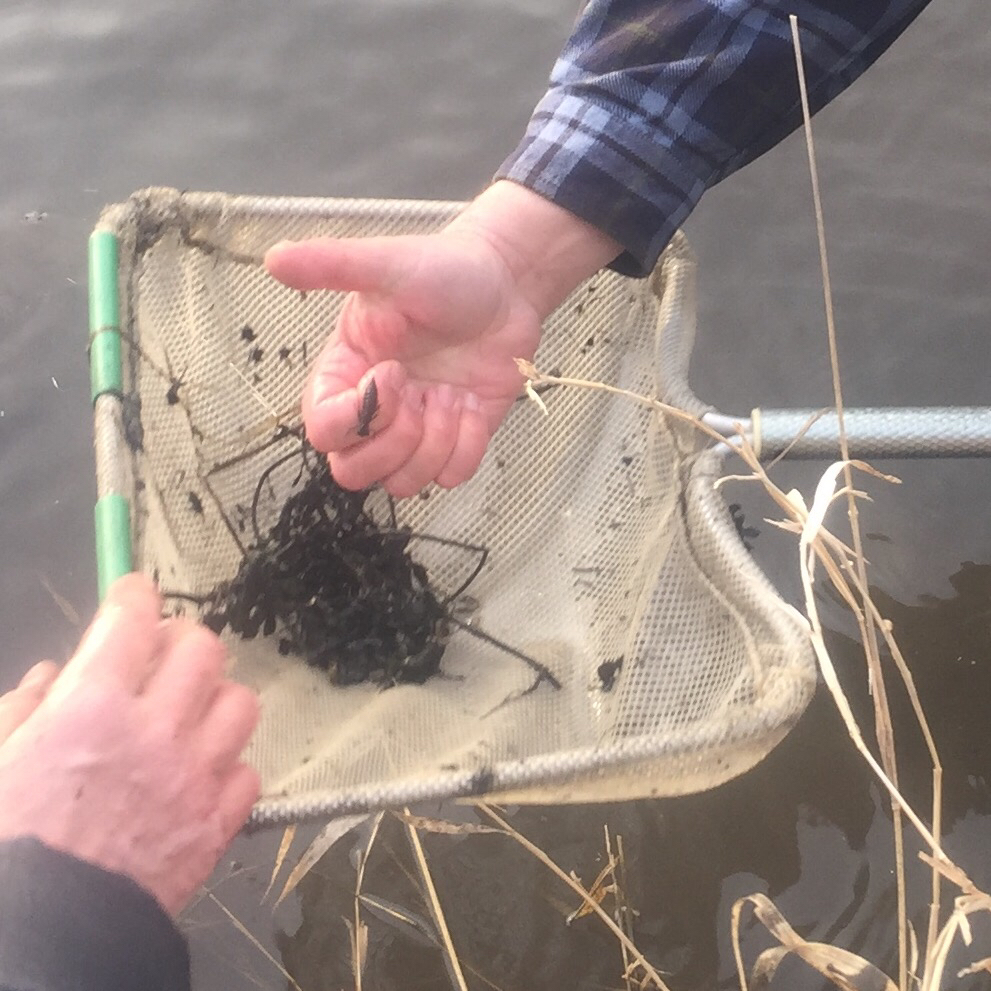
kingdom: Animalia
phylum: Arthropoda
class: Insecta
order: Odonata
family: Aeshnidae
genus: Aeshna
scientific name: Aeshna umbrosa
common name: Shadow darner
